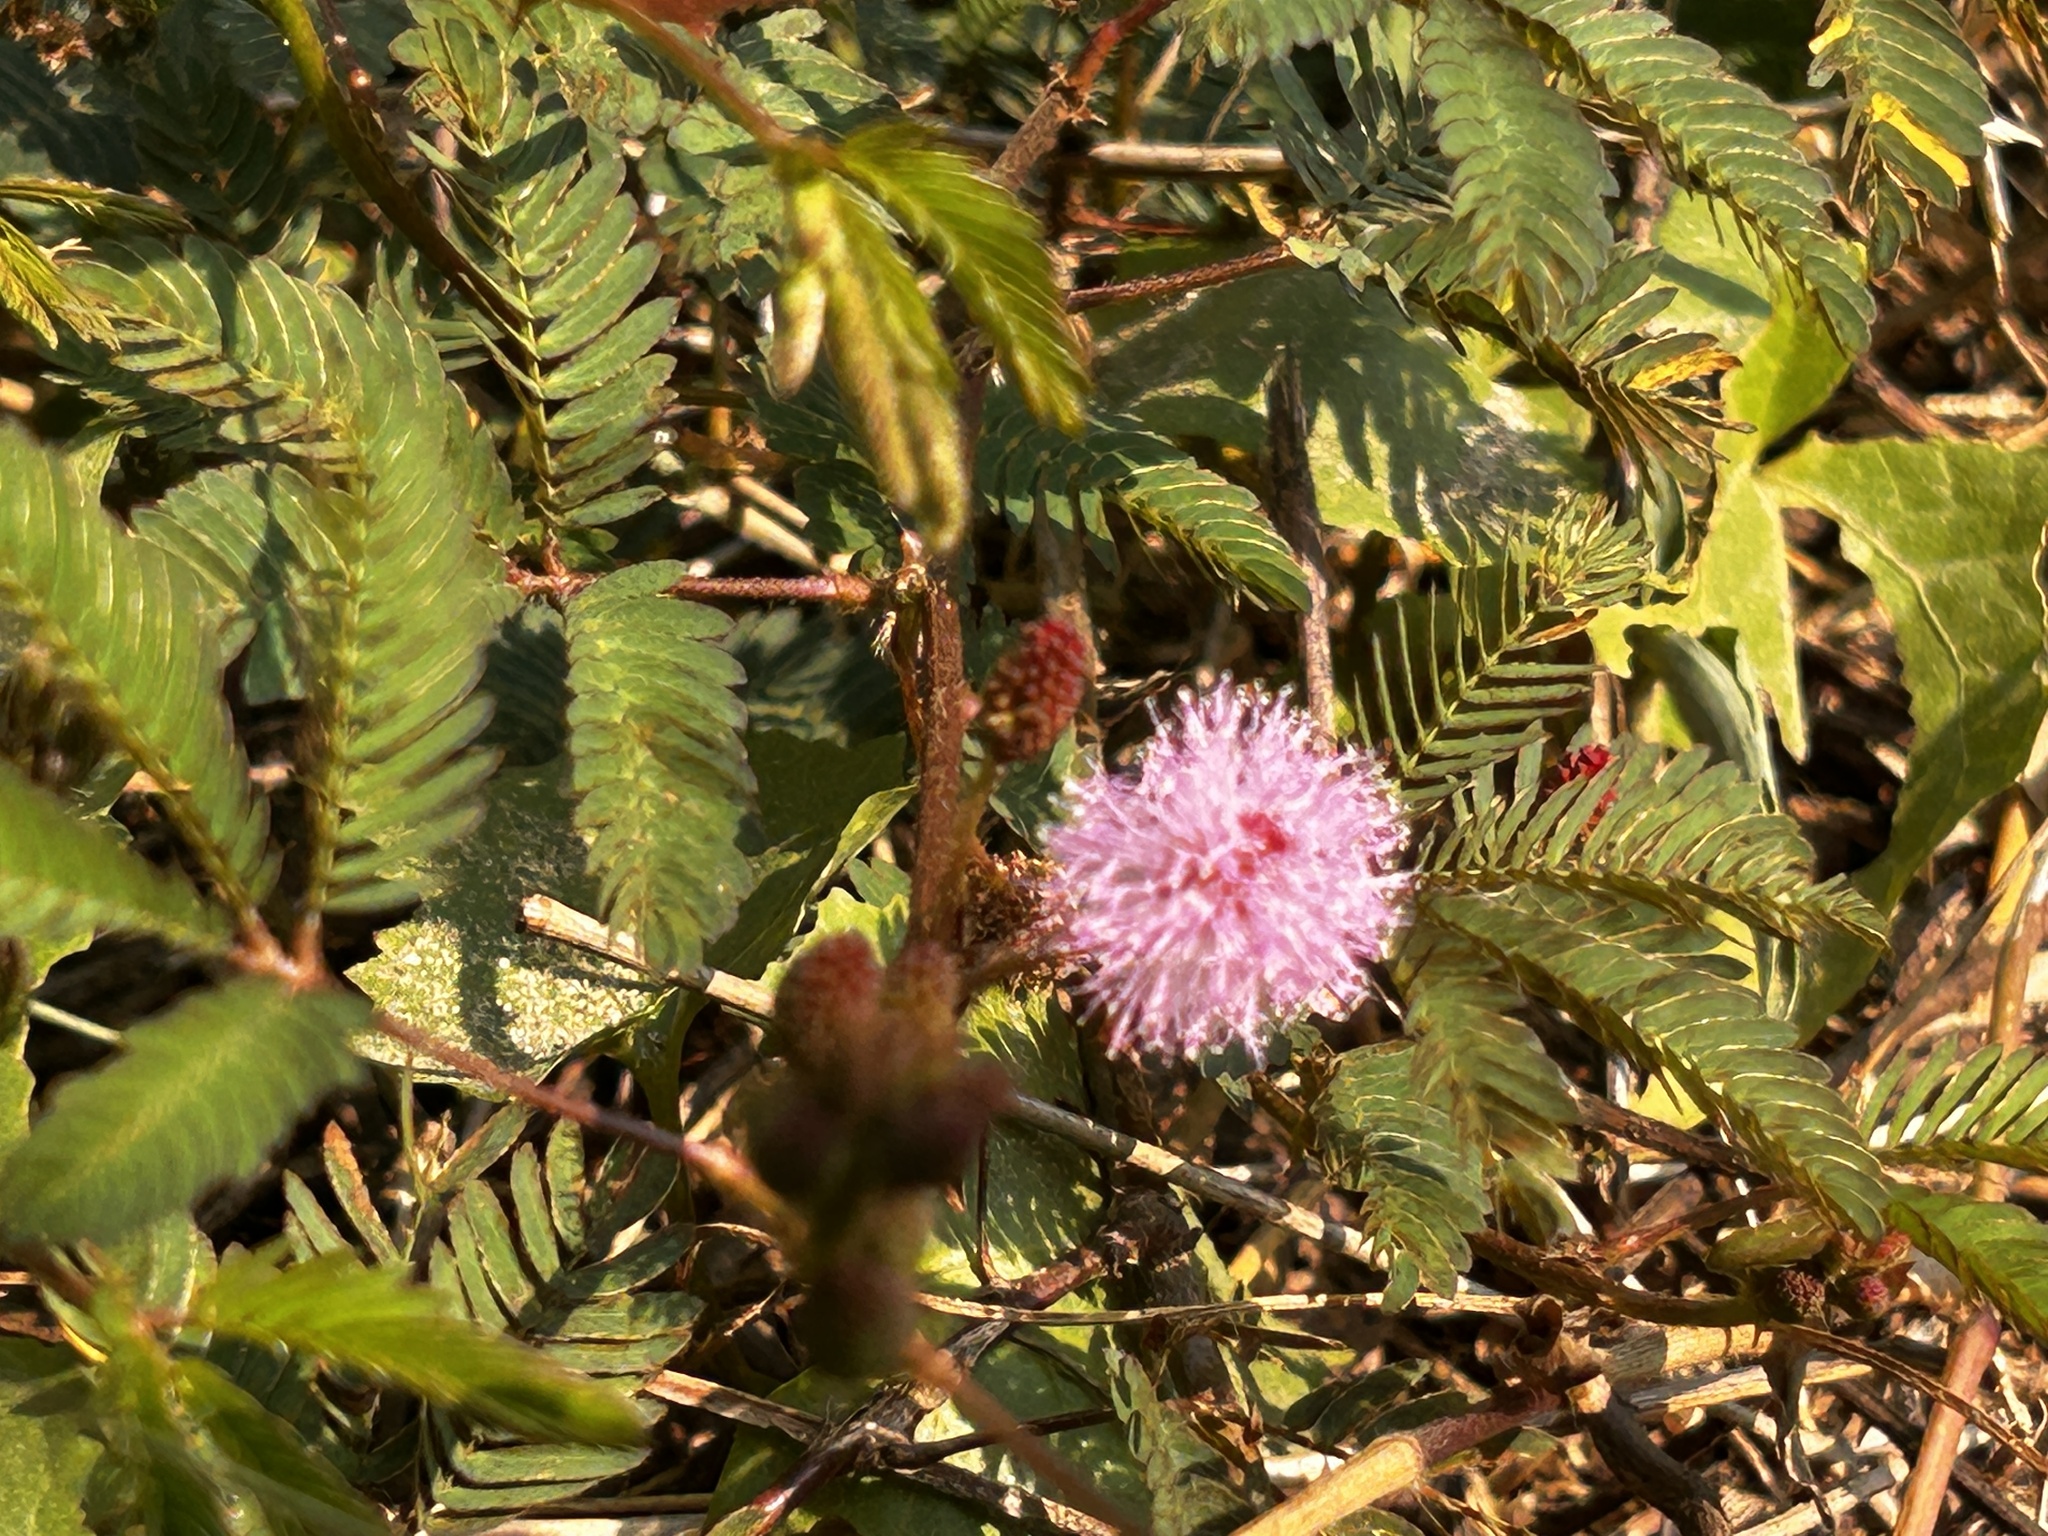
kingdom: Plantae
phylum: Tracheophyta
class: Magnoliopsida
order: Fabales
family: Fabaceae
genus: Mimosa
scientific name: Mimosa pudica
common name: Sensitive plant
